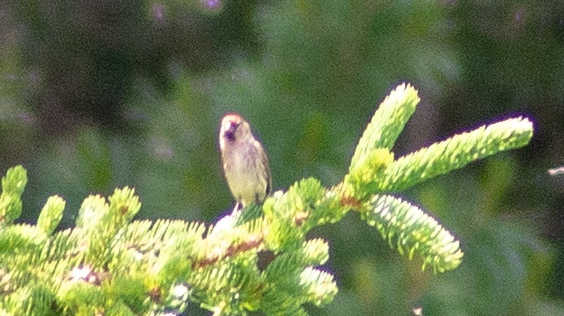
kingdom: Animalia
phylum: Chordata
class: Aves
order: Passeriformes
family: Fringillidae
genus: Acanthis
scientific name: Acanthis flammea
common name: Common redpoll
